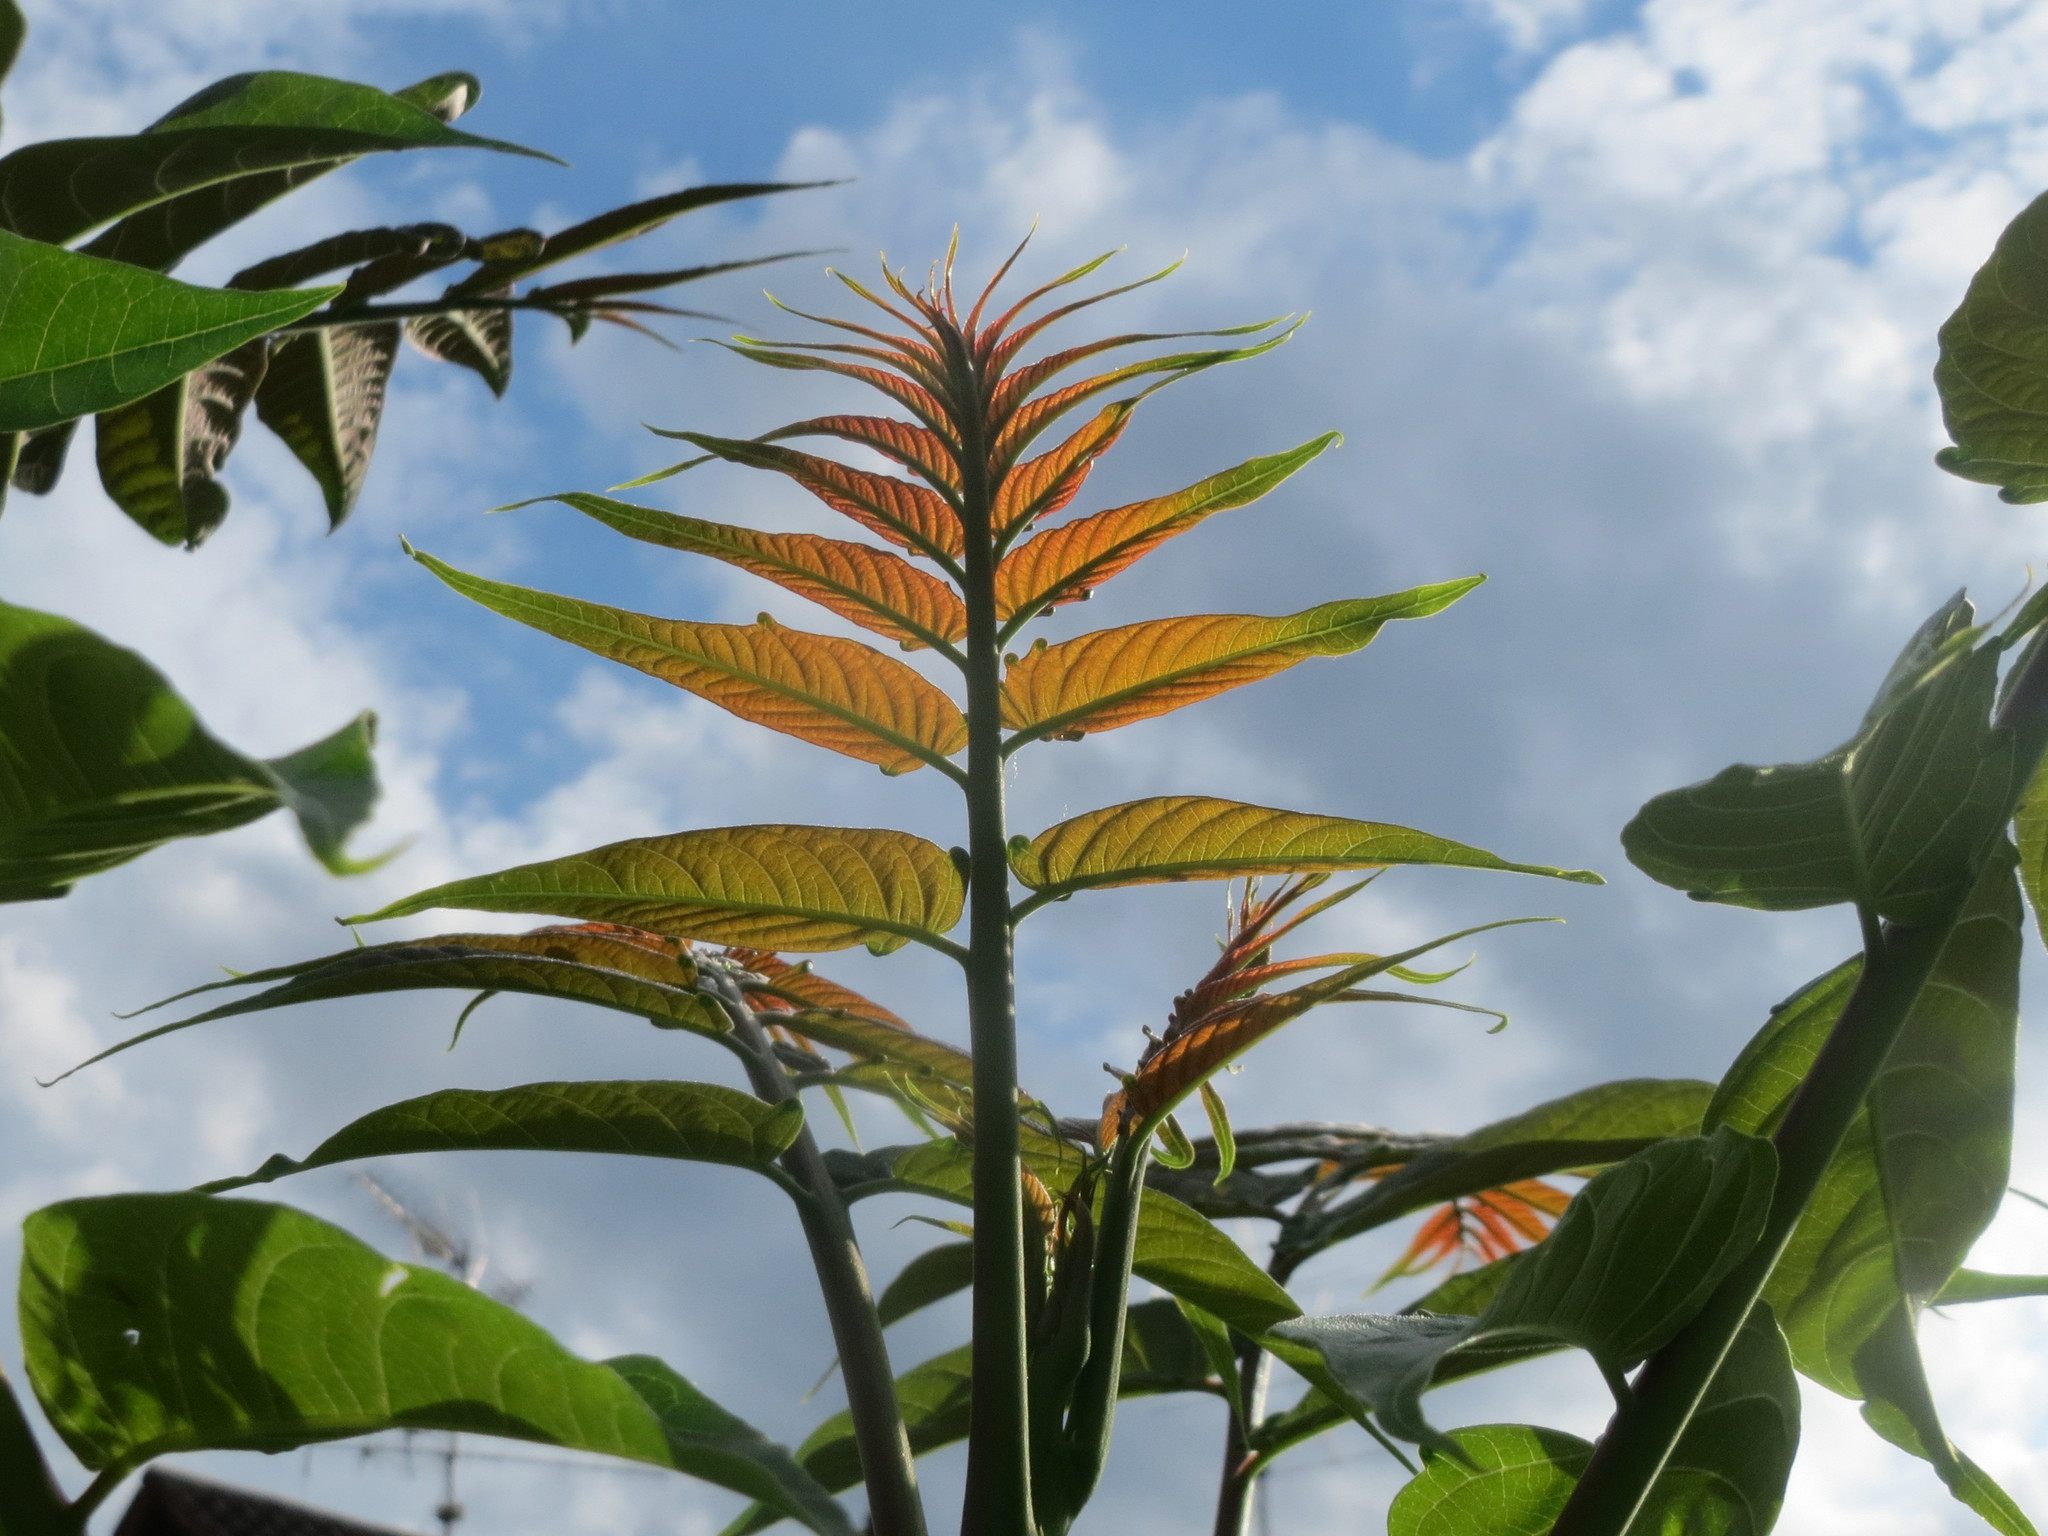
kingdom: Plantae
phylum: Tracheophyta
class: Magnoliopsida
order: Sapindales
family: Simaroubaceae
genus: Ailanthus
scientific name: Ailanthus altissima
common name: Tree-of-heaven
